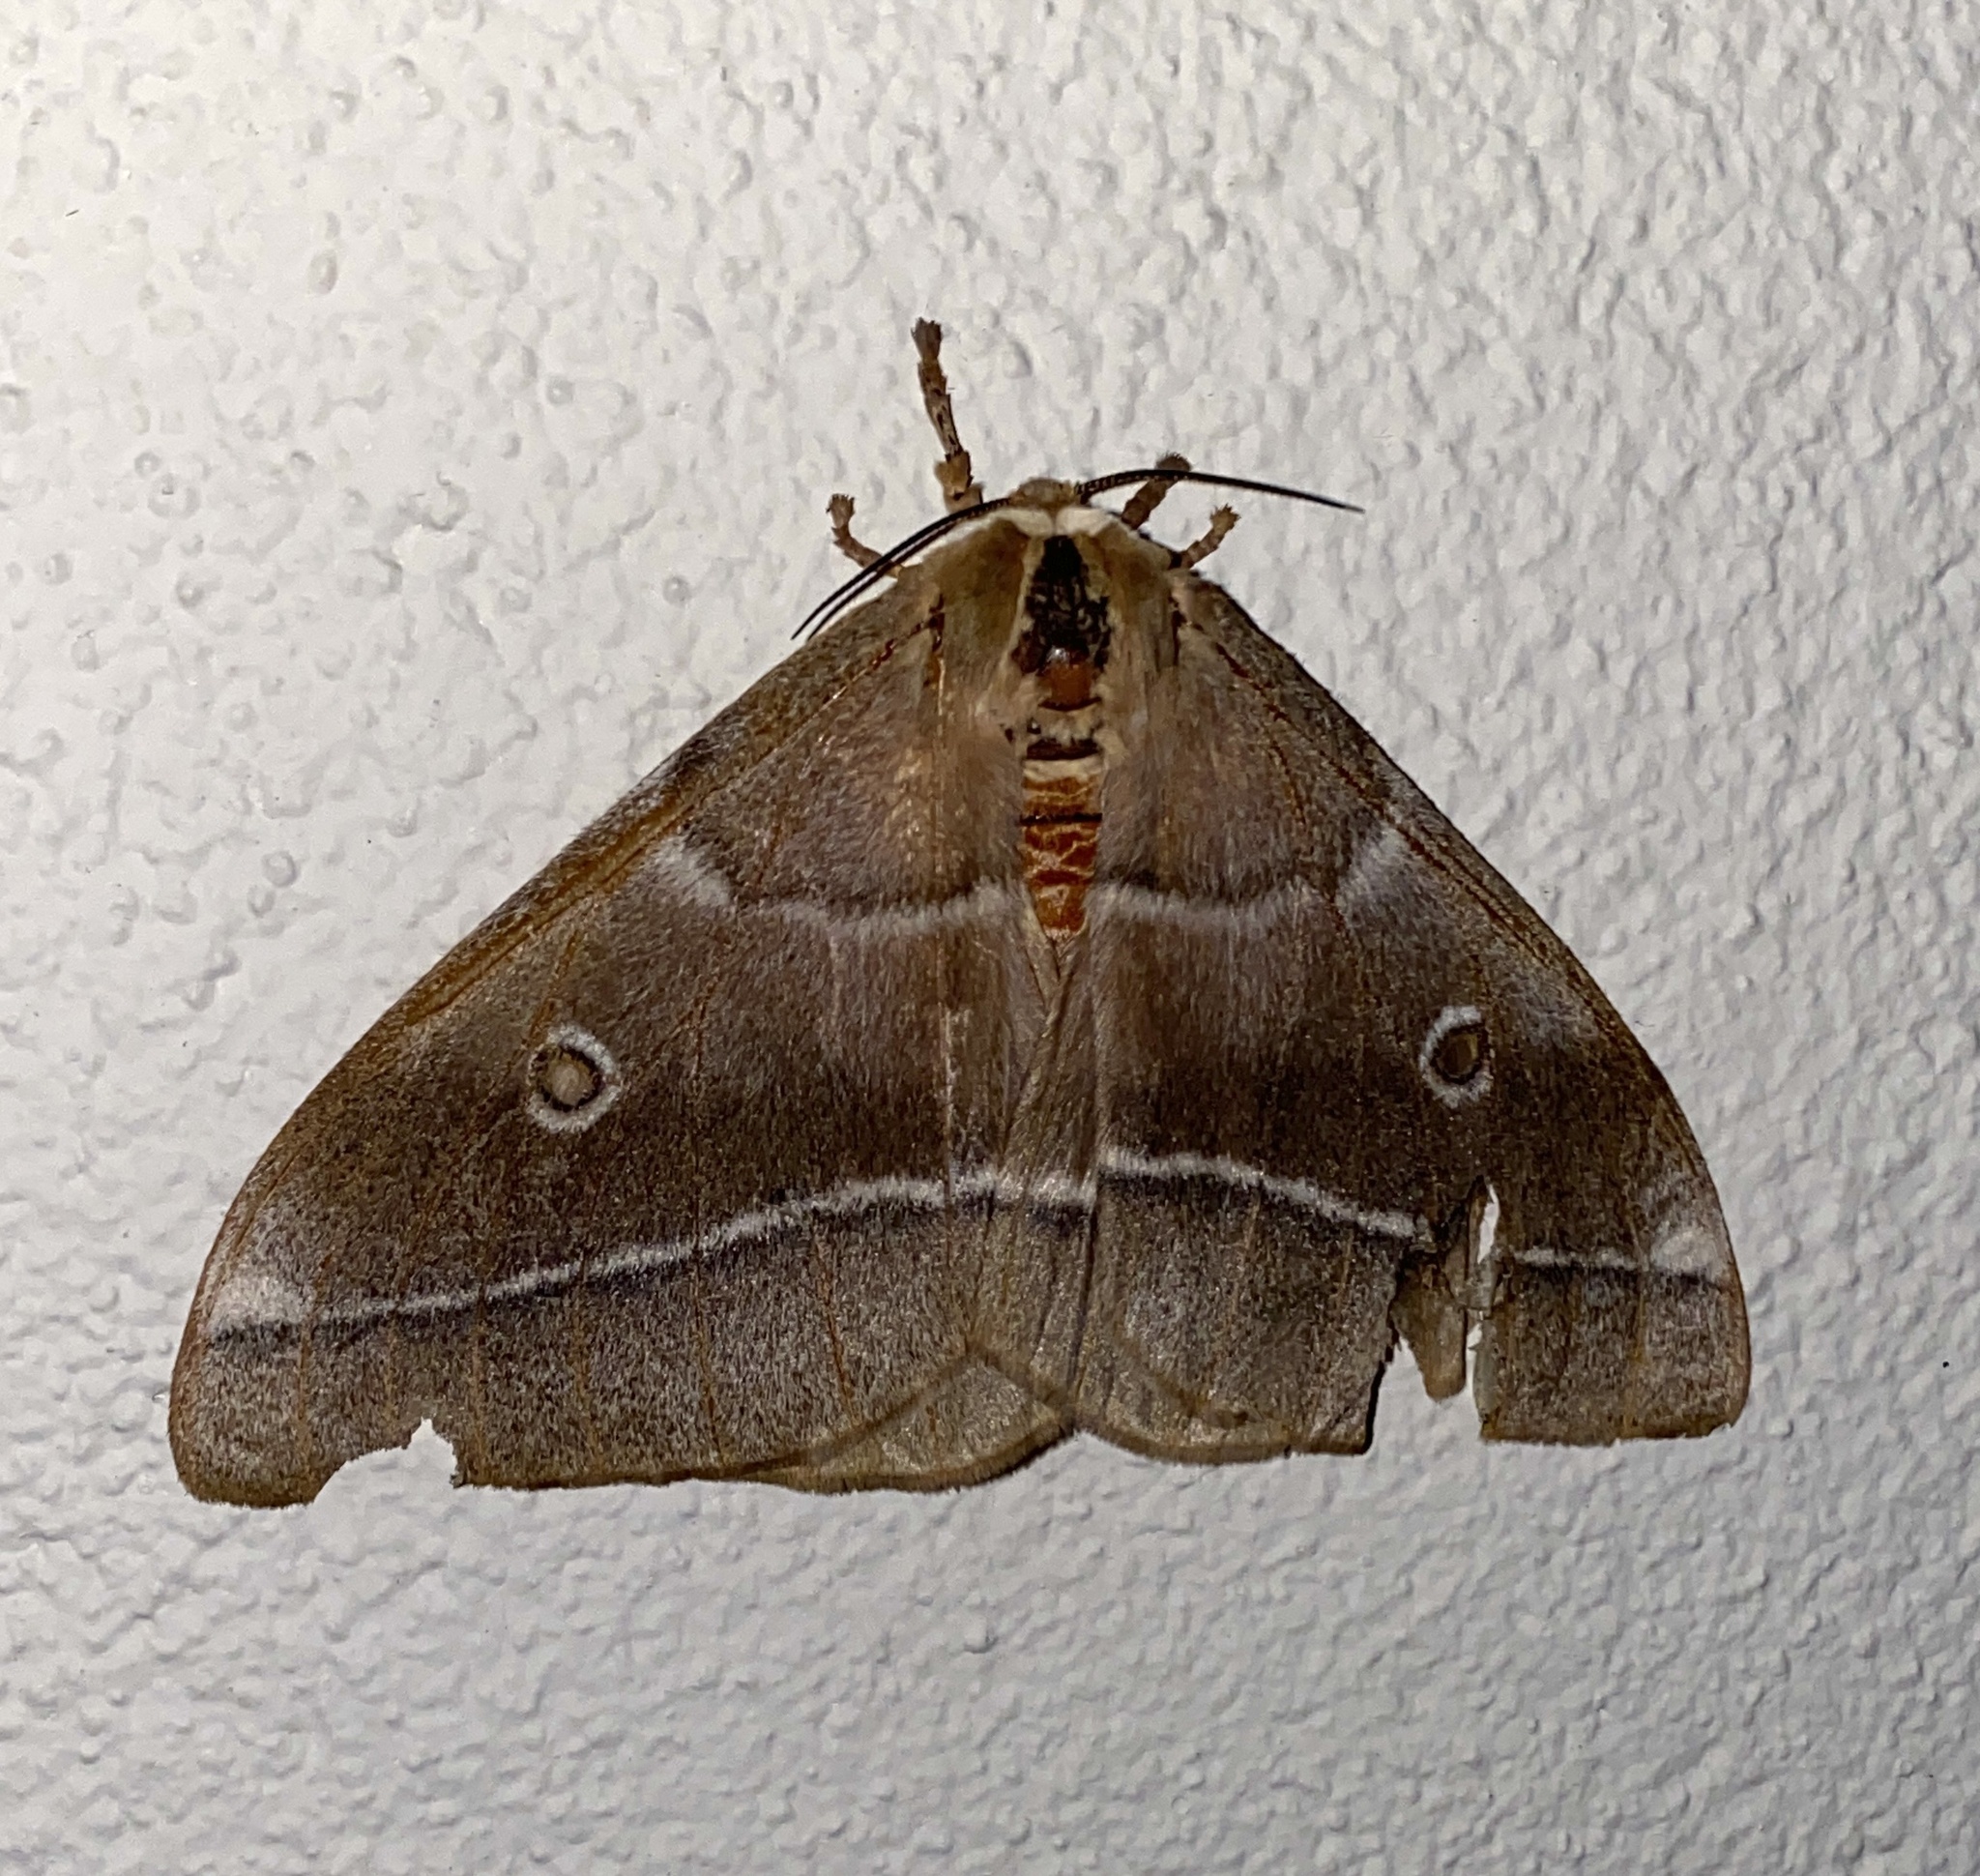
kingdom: Animalia
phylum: Arthropoda
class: Insecta
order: Lepidoptera
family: Saturniidae
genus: Gonimbrasia
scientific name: Gonimbrasia belina
